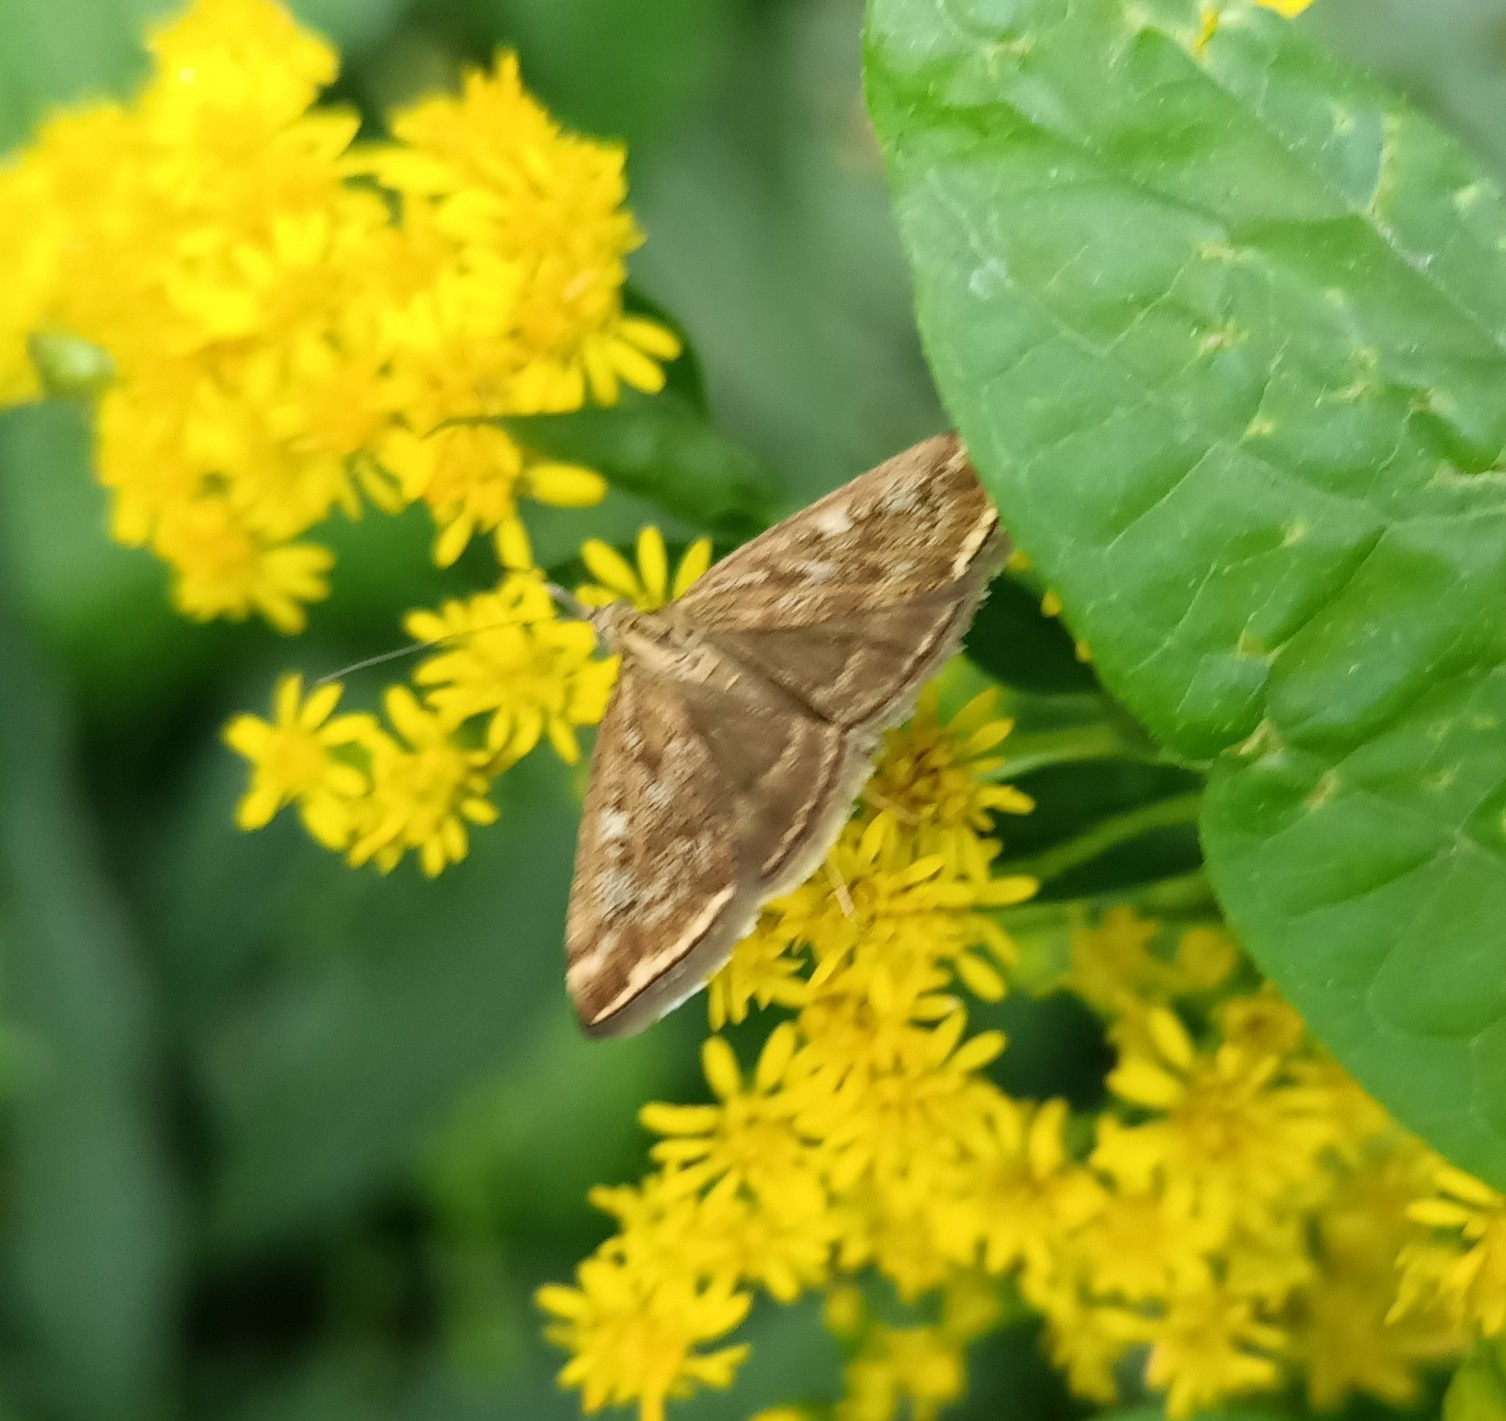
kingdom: Animalia
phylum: Arthropoda
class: Insecta
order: Lepidoptera
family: Crambidae
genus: Loxostege
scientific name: Loxostege sticticalis
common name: Crambid moth
